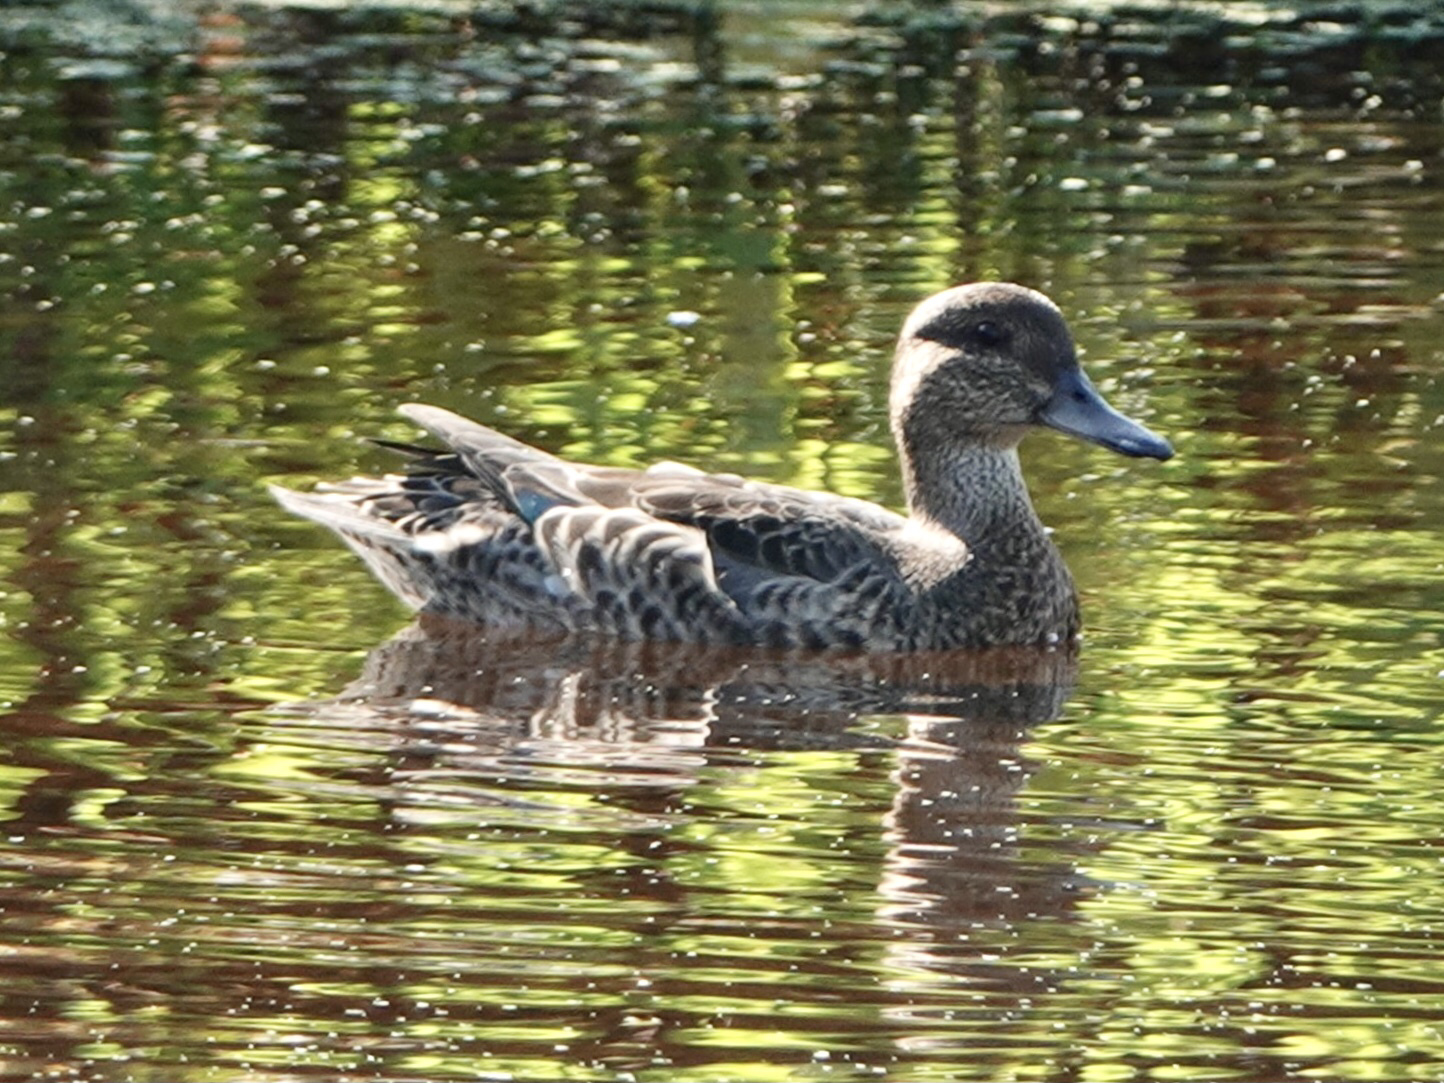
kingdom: Animalia
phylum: Chordata
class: Aves
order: Anseriformes
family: Anatidae
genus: Anas
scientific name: Anas crecca
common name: Eurasian teal
